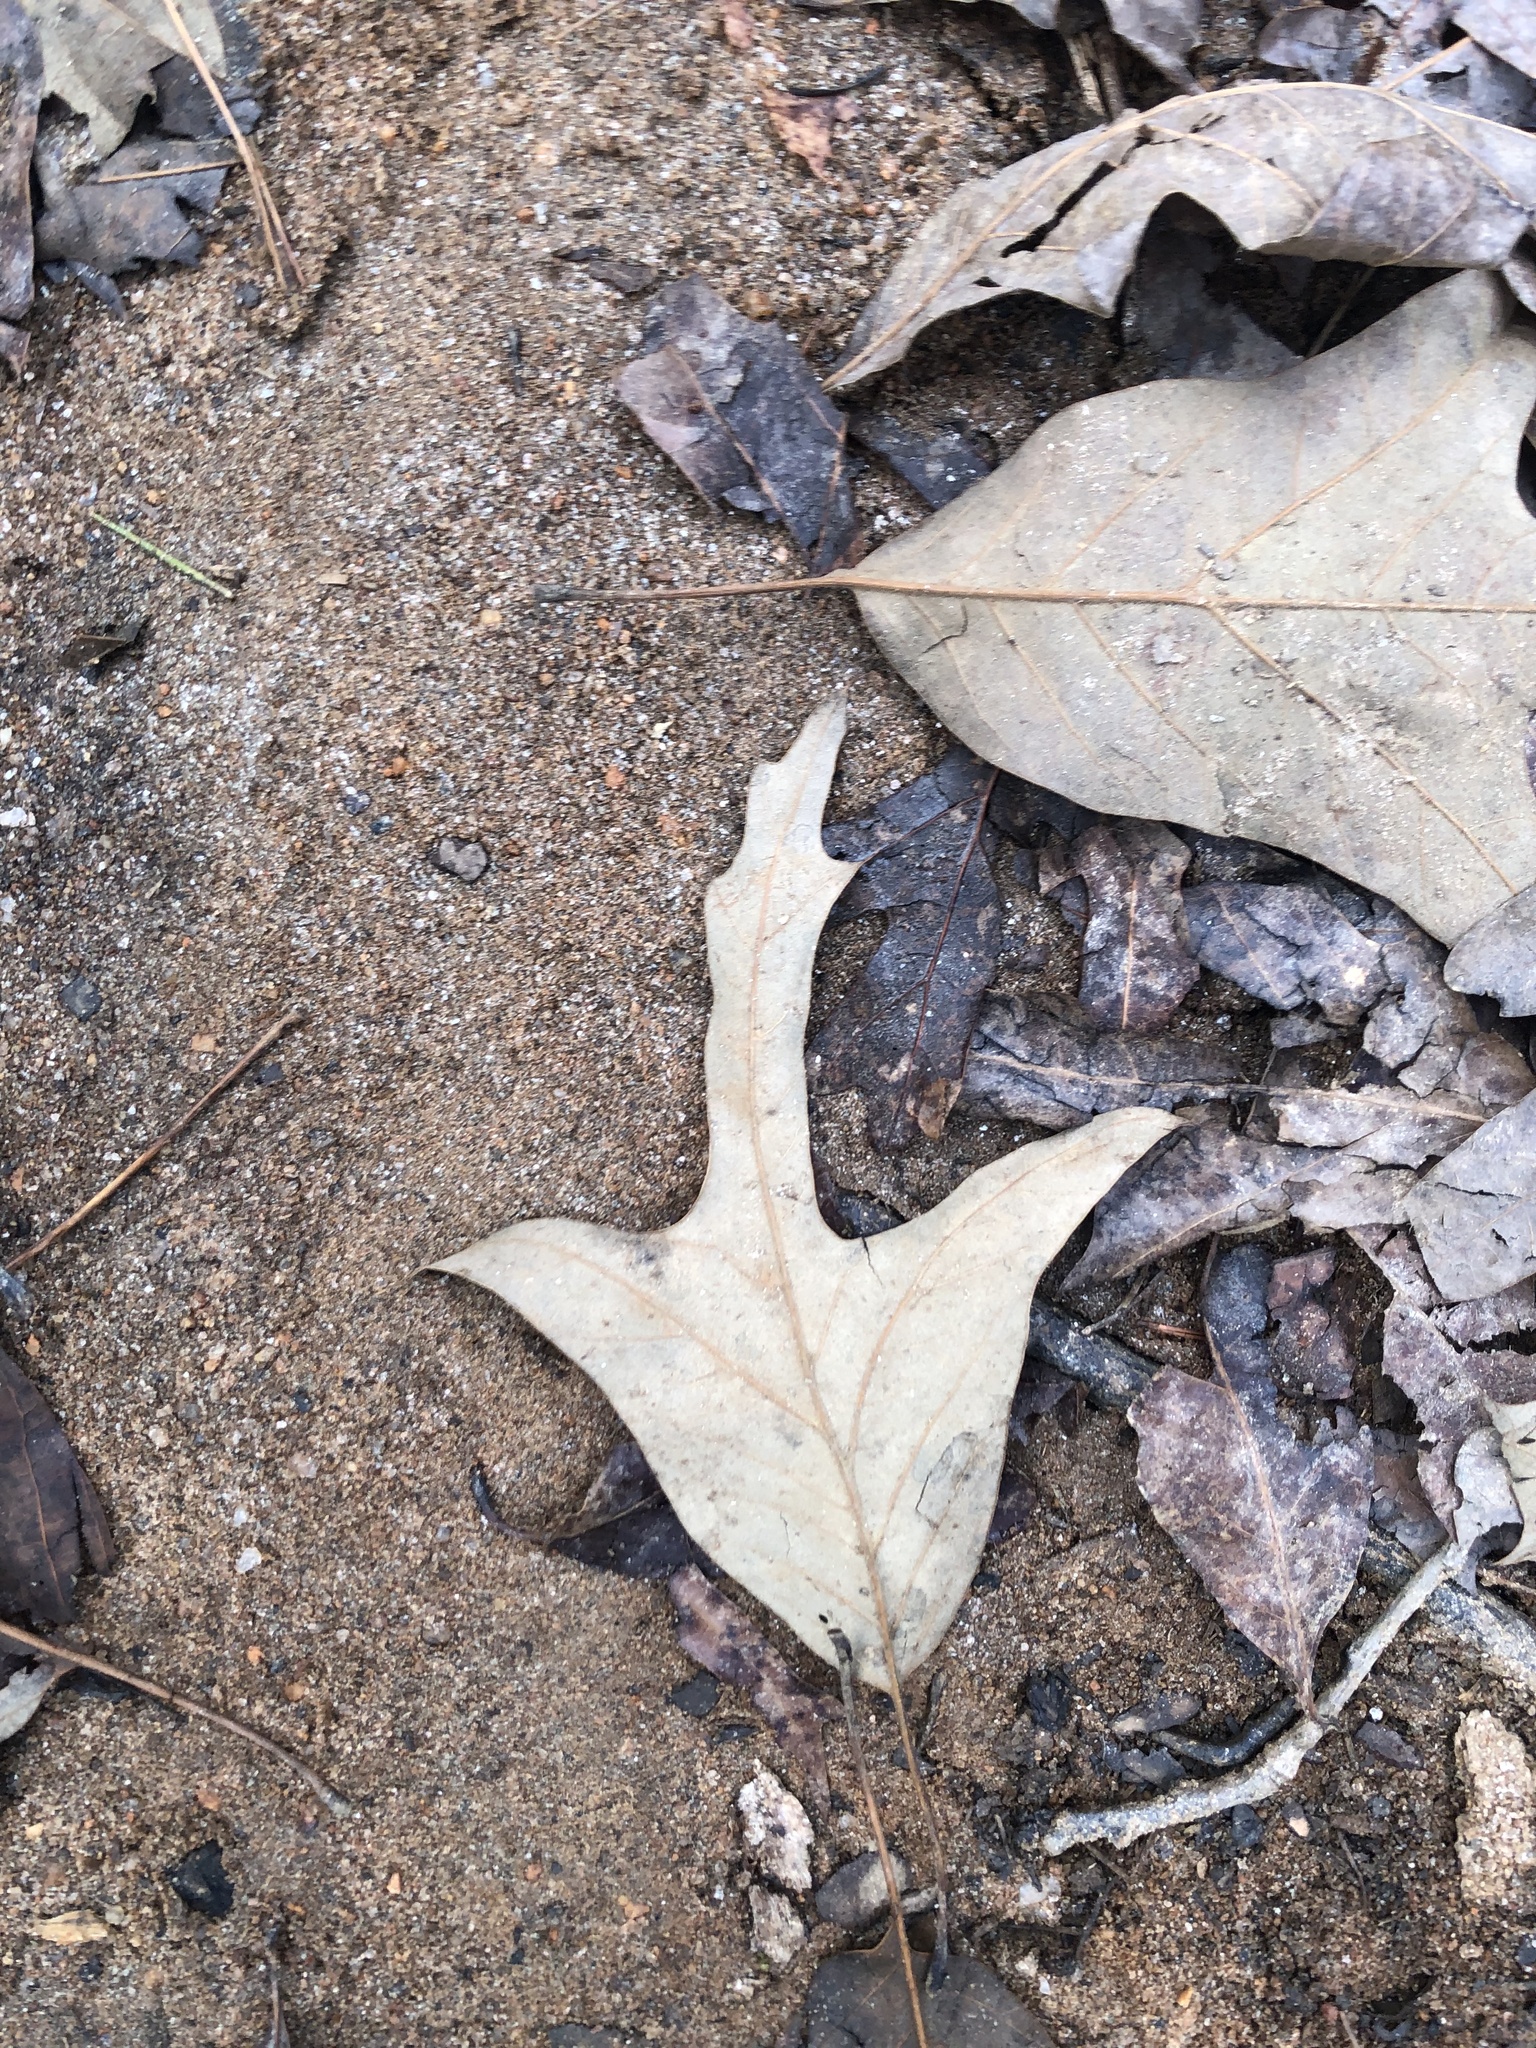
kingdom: Plantae
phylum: Tracheophyta
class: Magnoliopsida
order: Fagales
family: Fagaceae
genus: Quercus
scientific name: Quercus falcata
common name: Southern red oak
